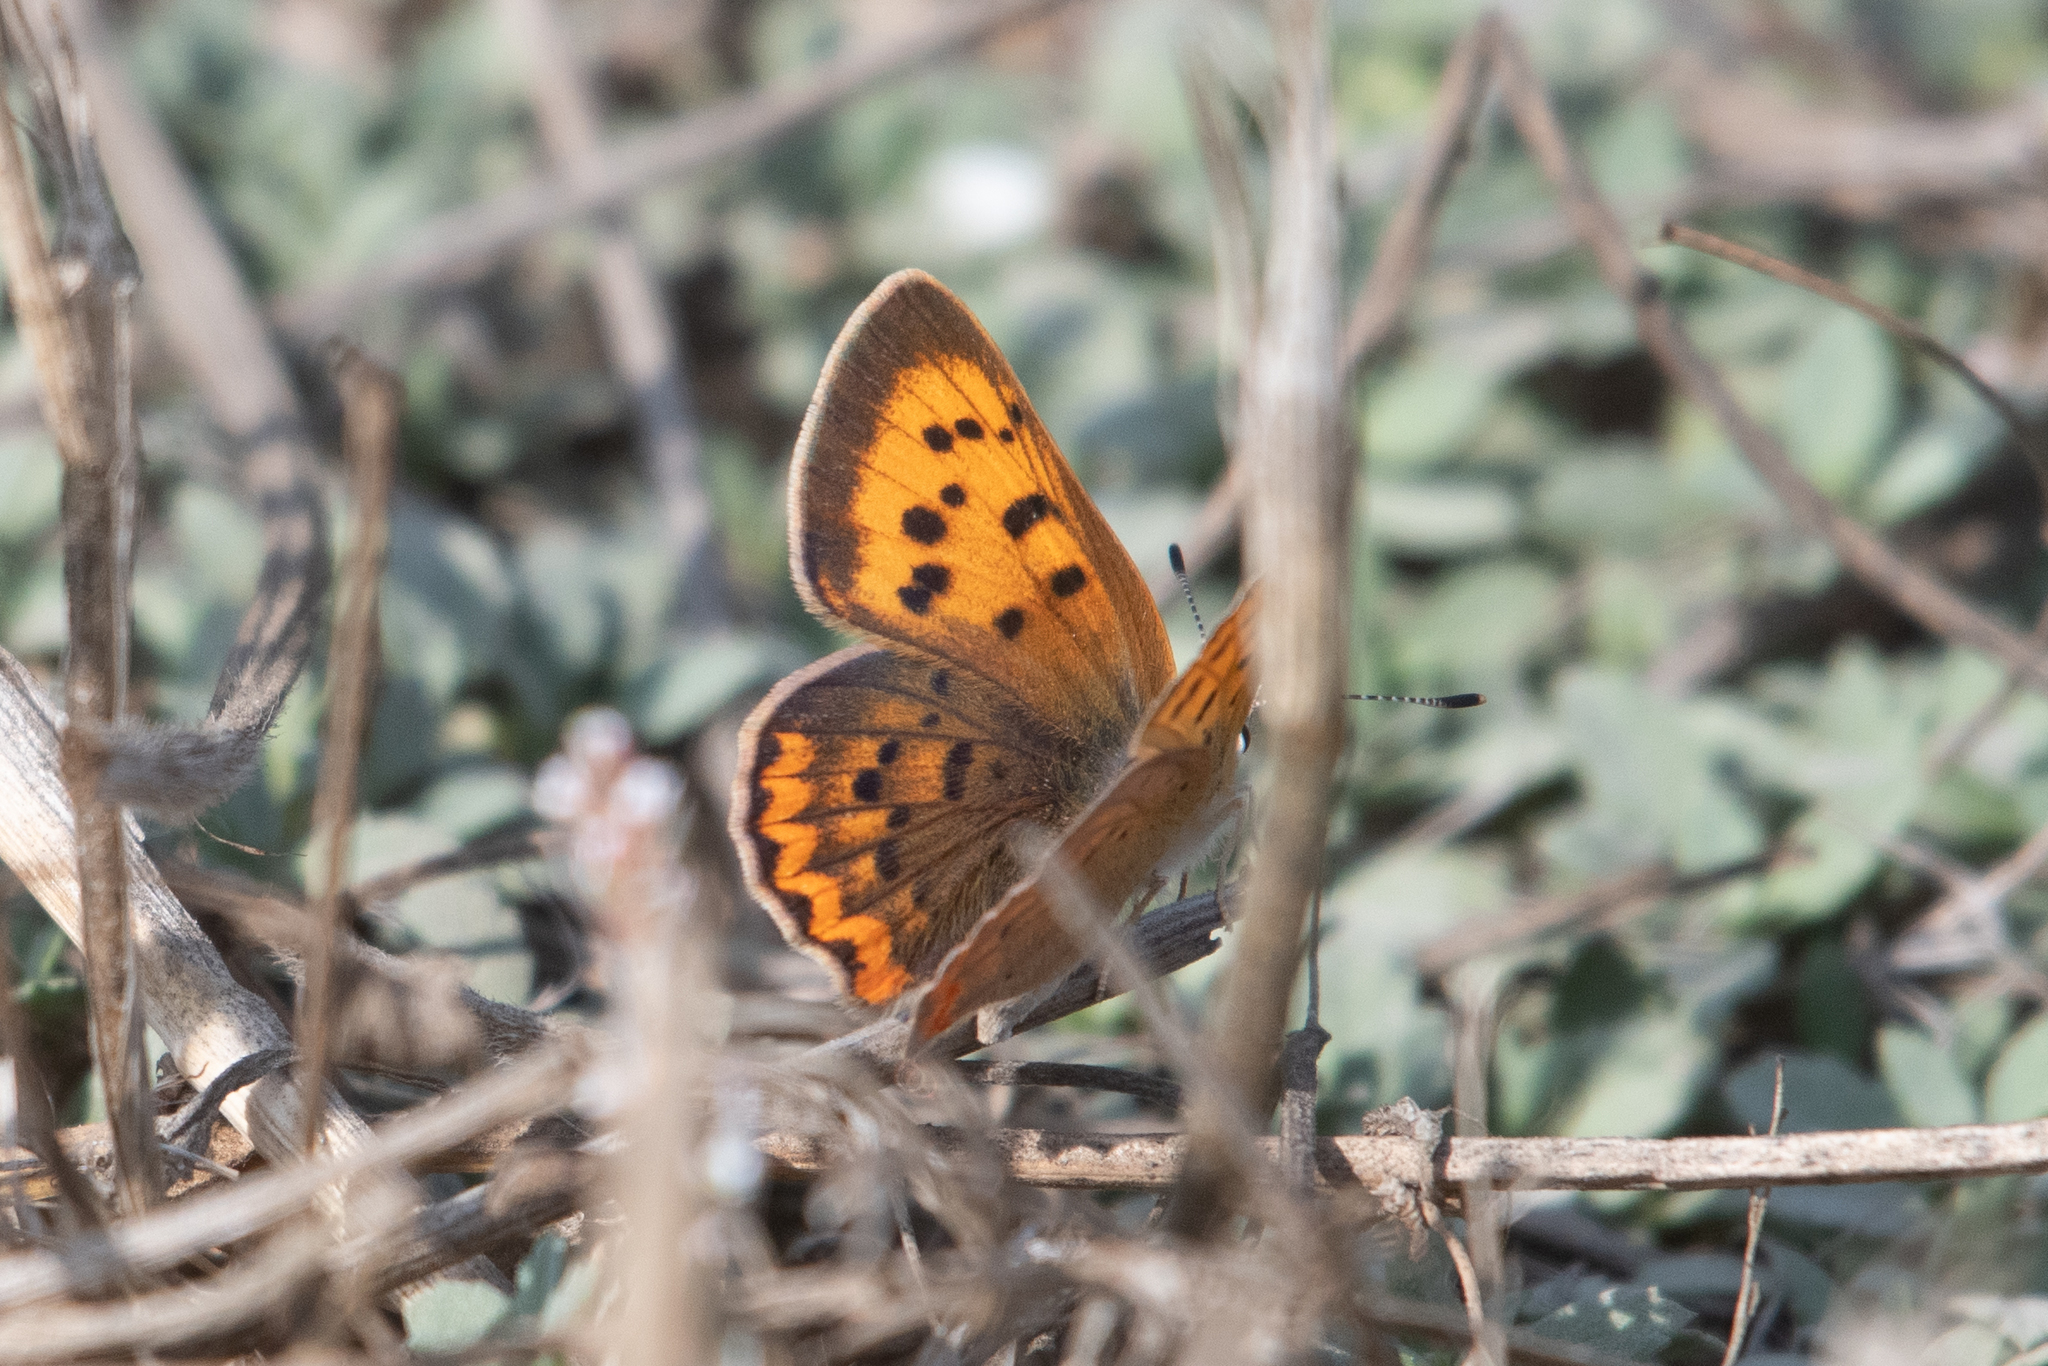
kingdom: Animalia
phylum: Arthropoda
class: Insecta
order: Lepidoptera
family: Lycaenidae
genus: Tharsalea
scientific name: Tharsalea helloides
